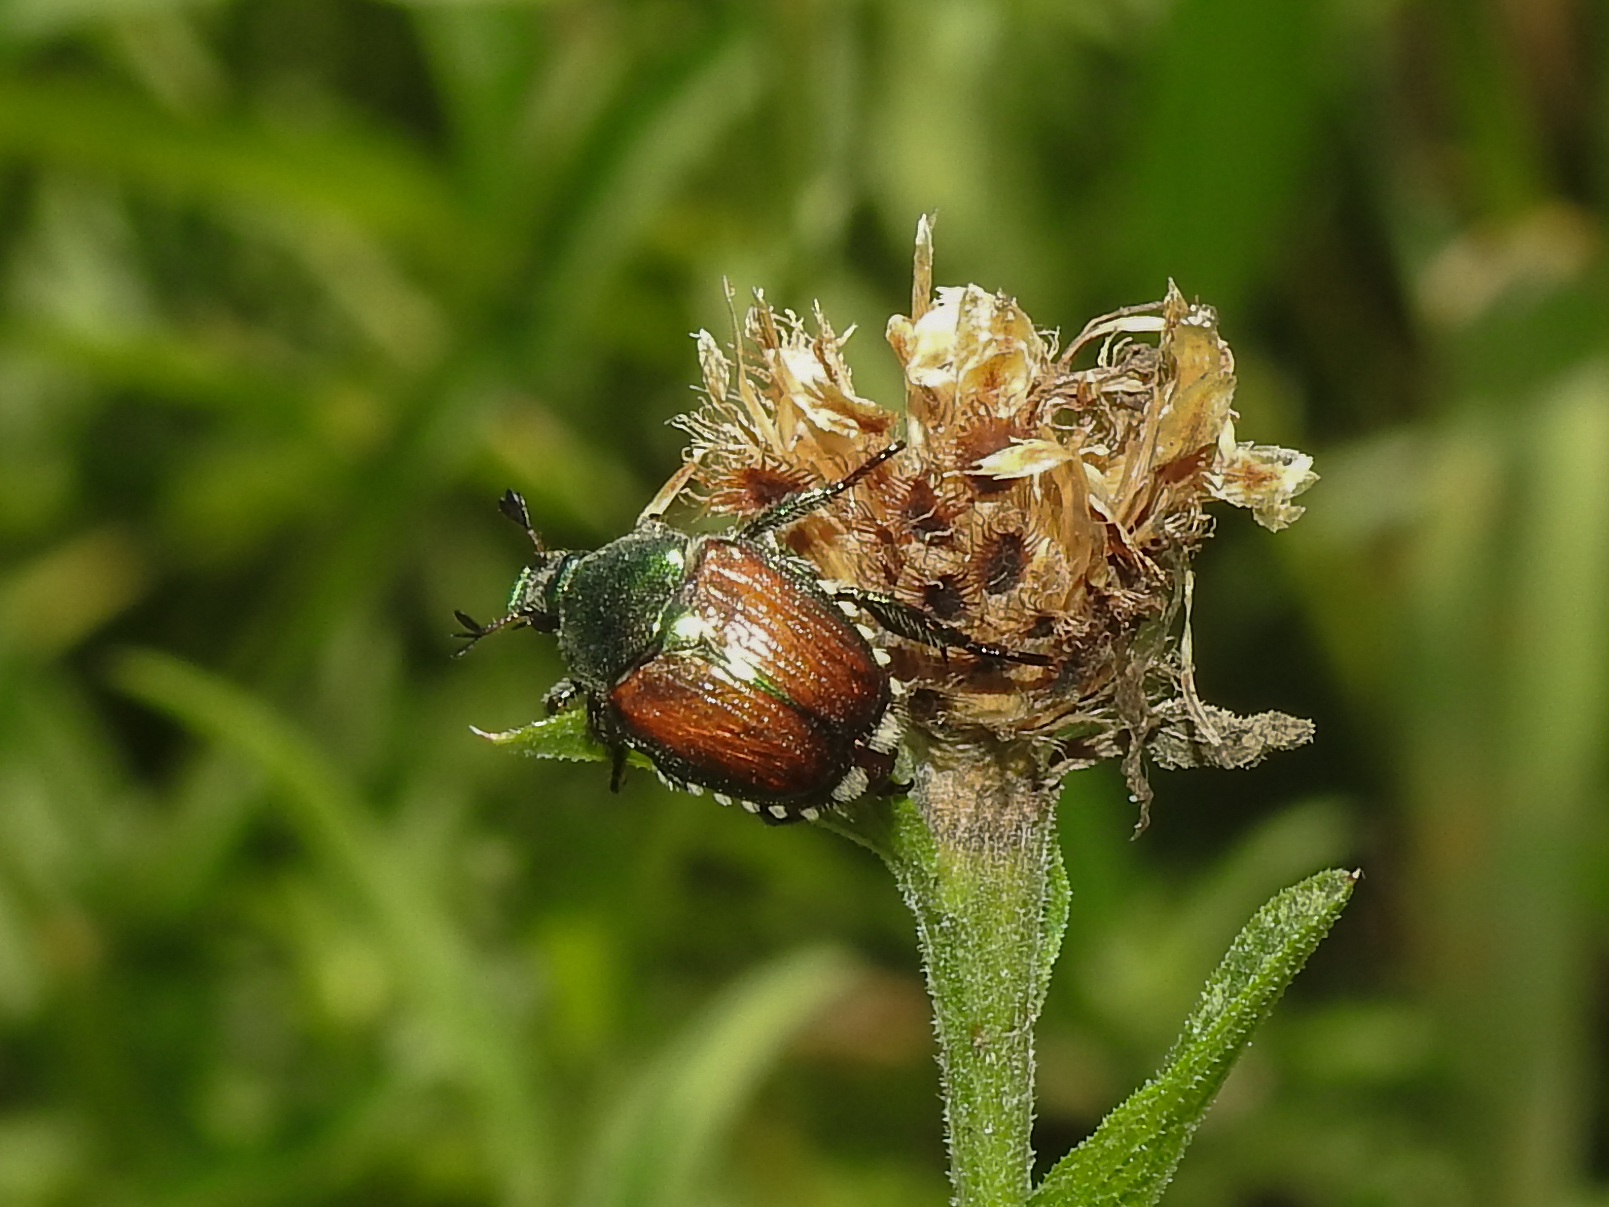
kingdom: Animalia
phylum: Arthropoda
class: Insecta
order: Coleoptera
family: Scarabaeidae
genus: Popillia
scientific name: Popillia japonica
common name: Japanese beetle
